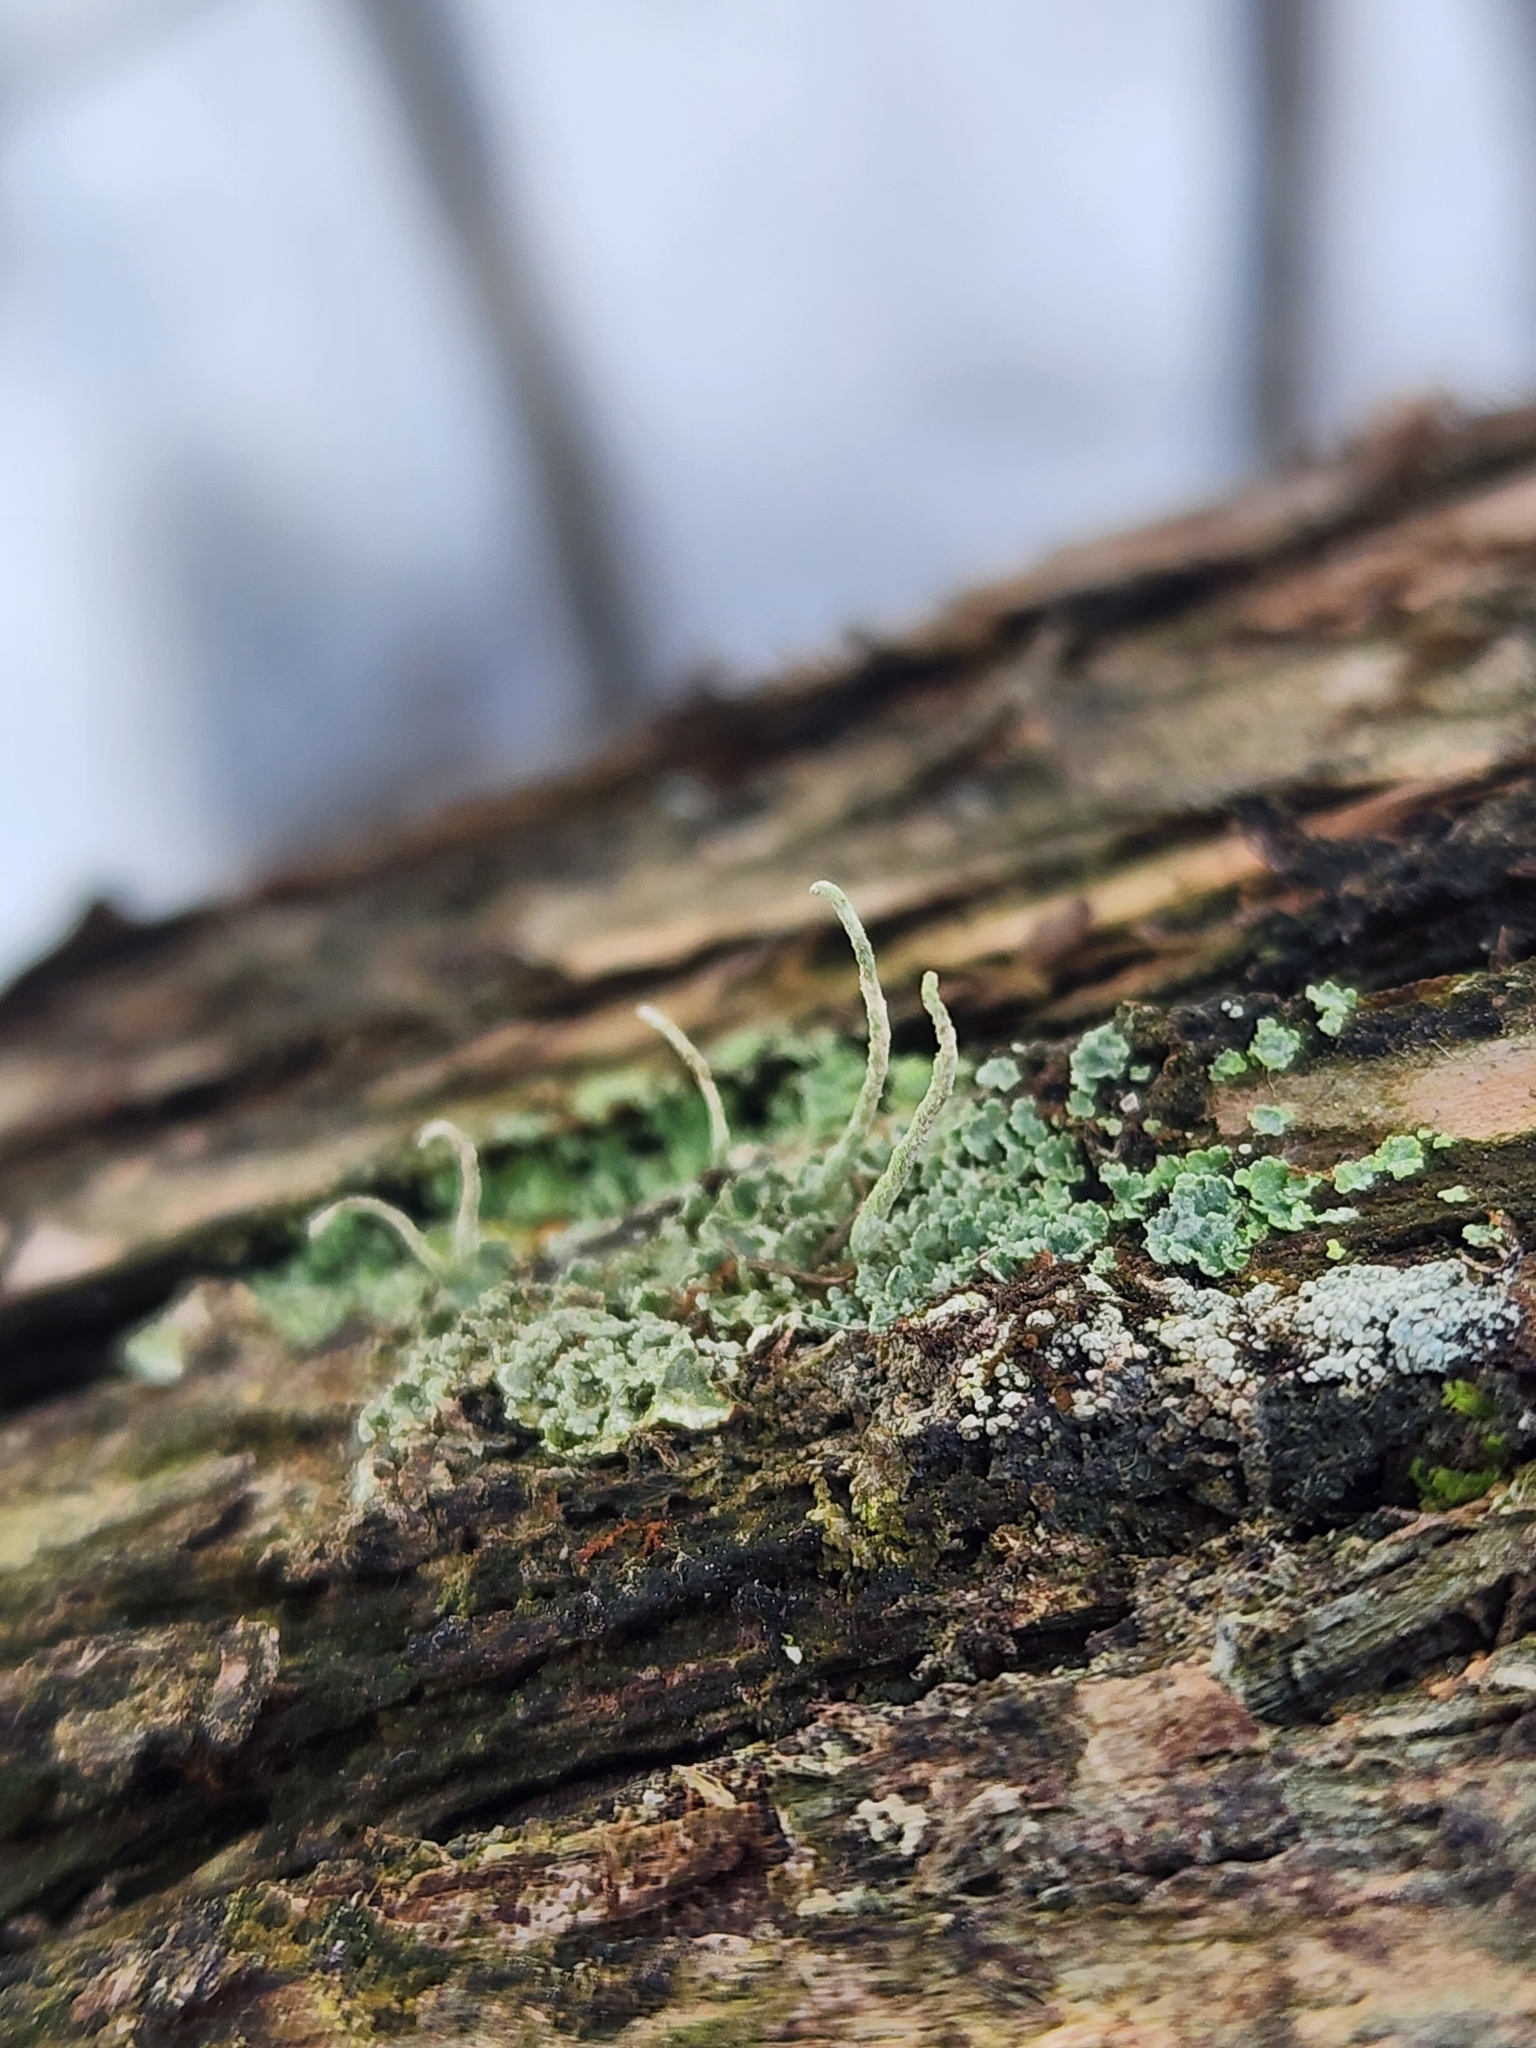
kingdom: Fungi
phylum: Ascomycota
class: Lecanoromycetes
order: Lecanorales
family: Cladoniaceae
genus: Cladonia
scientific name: Cladonia coniocraea
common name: Common powderhorn
